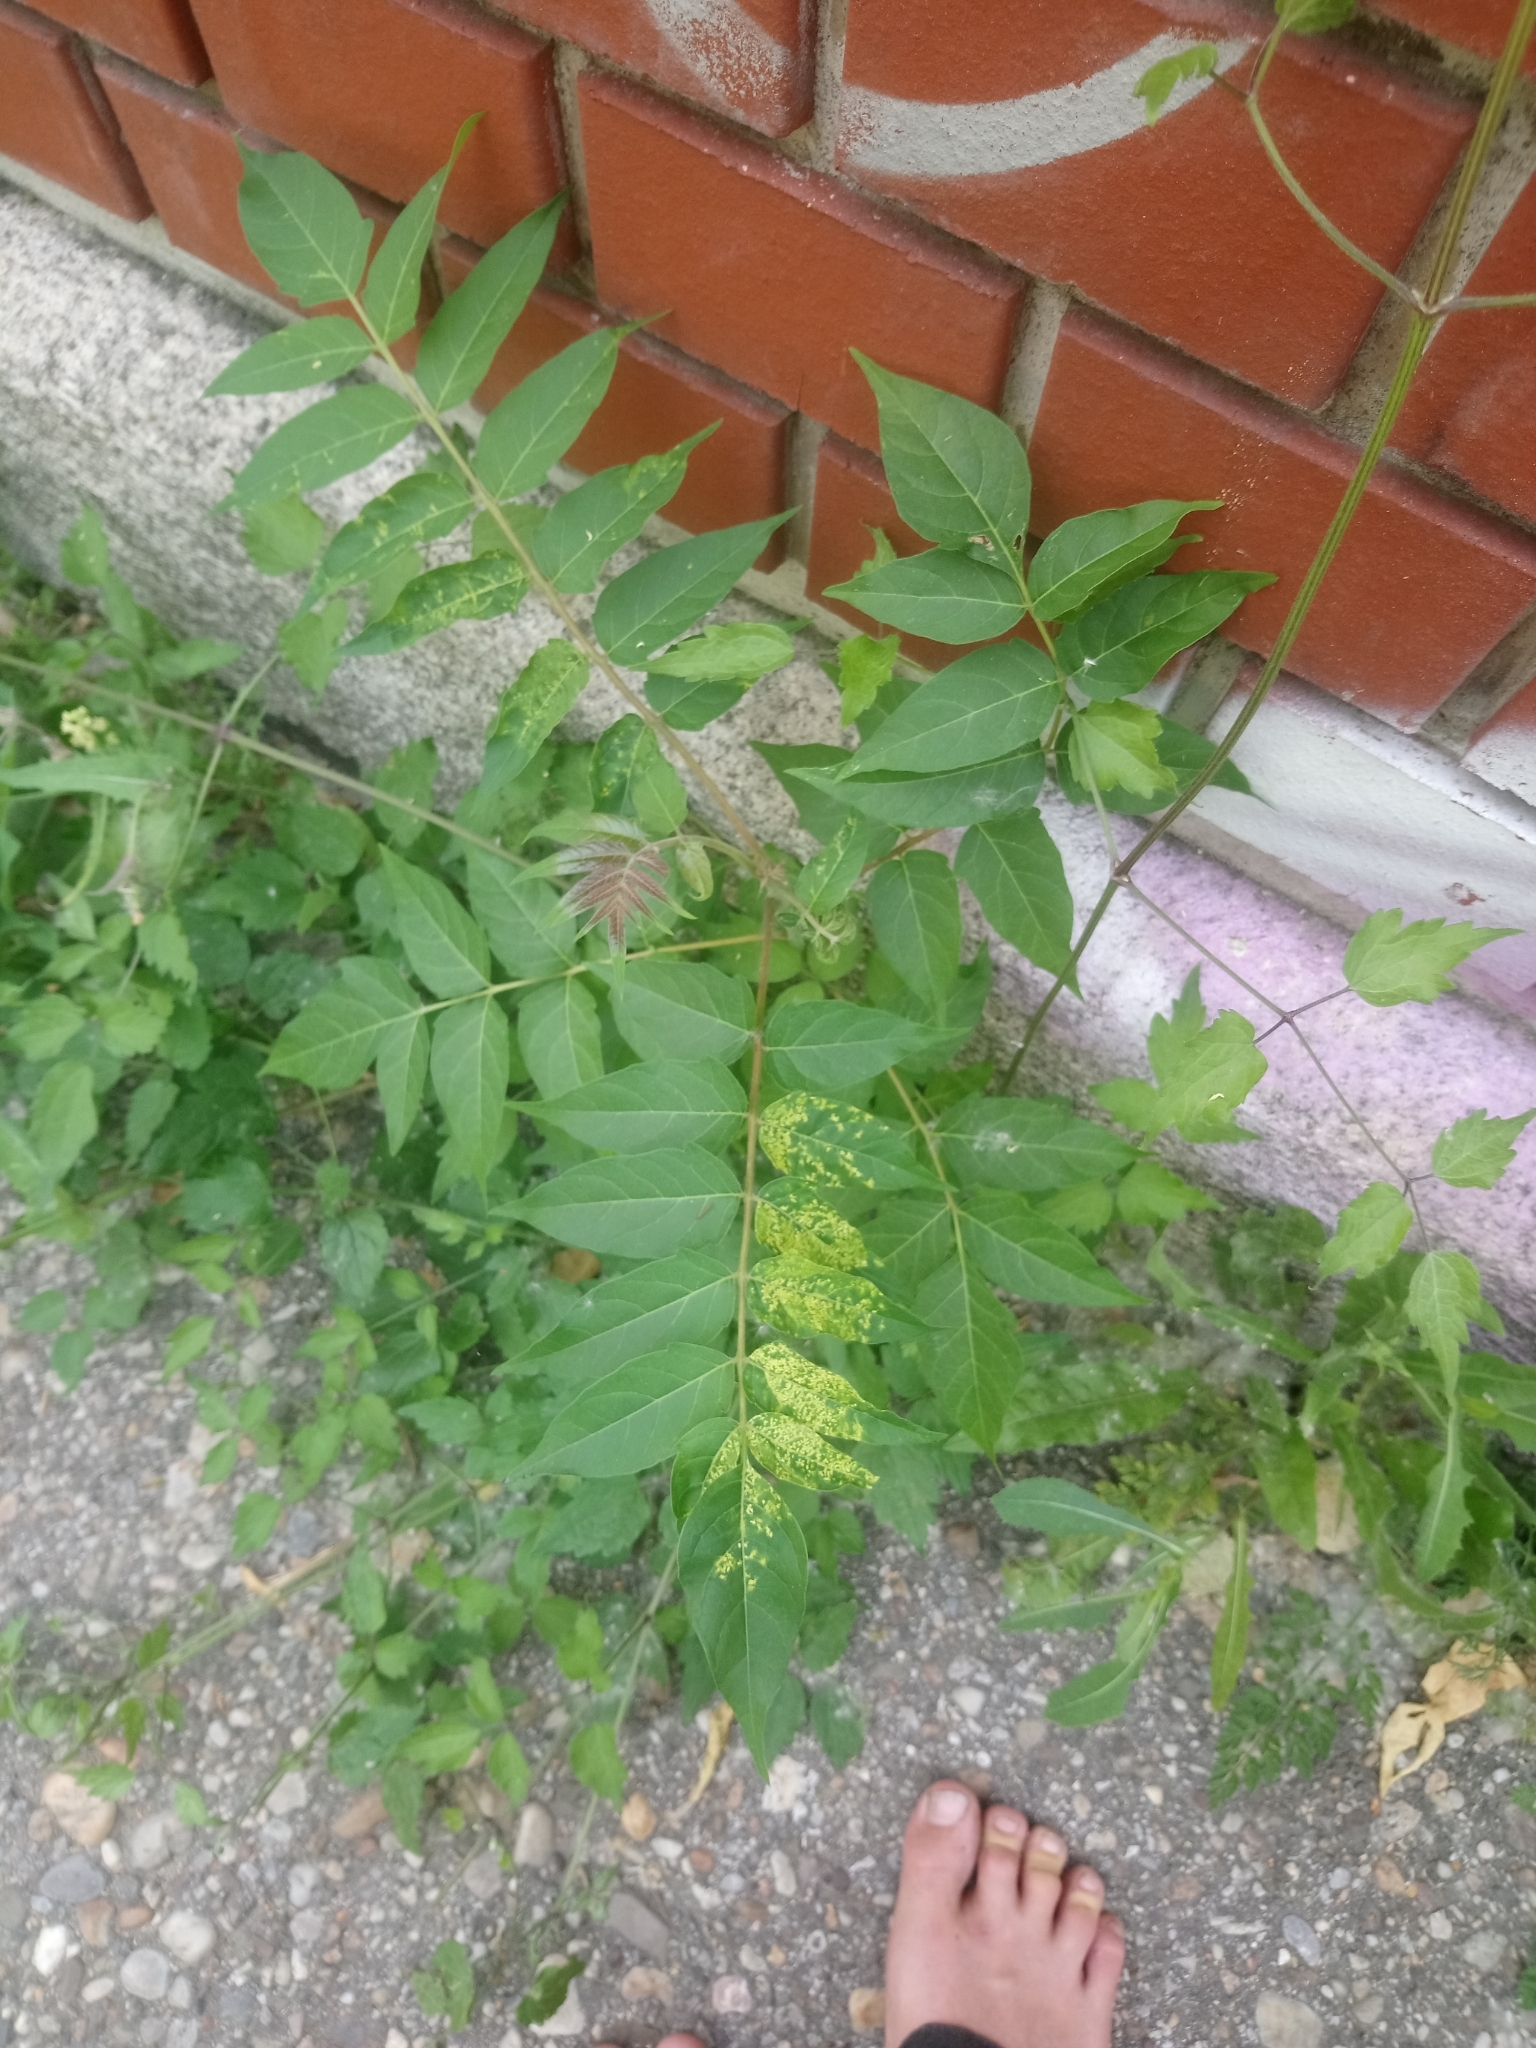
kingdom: Plantae
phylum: Tracheophyta
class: Magnoliopsida
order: Sapindales
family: Simaroubaceae
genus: Ailanthus
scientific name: Ailanthus altissima
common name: Tree-of-heaven
